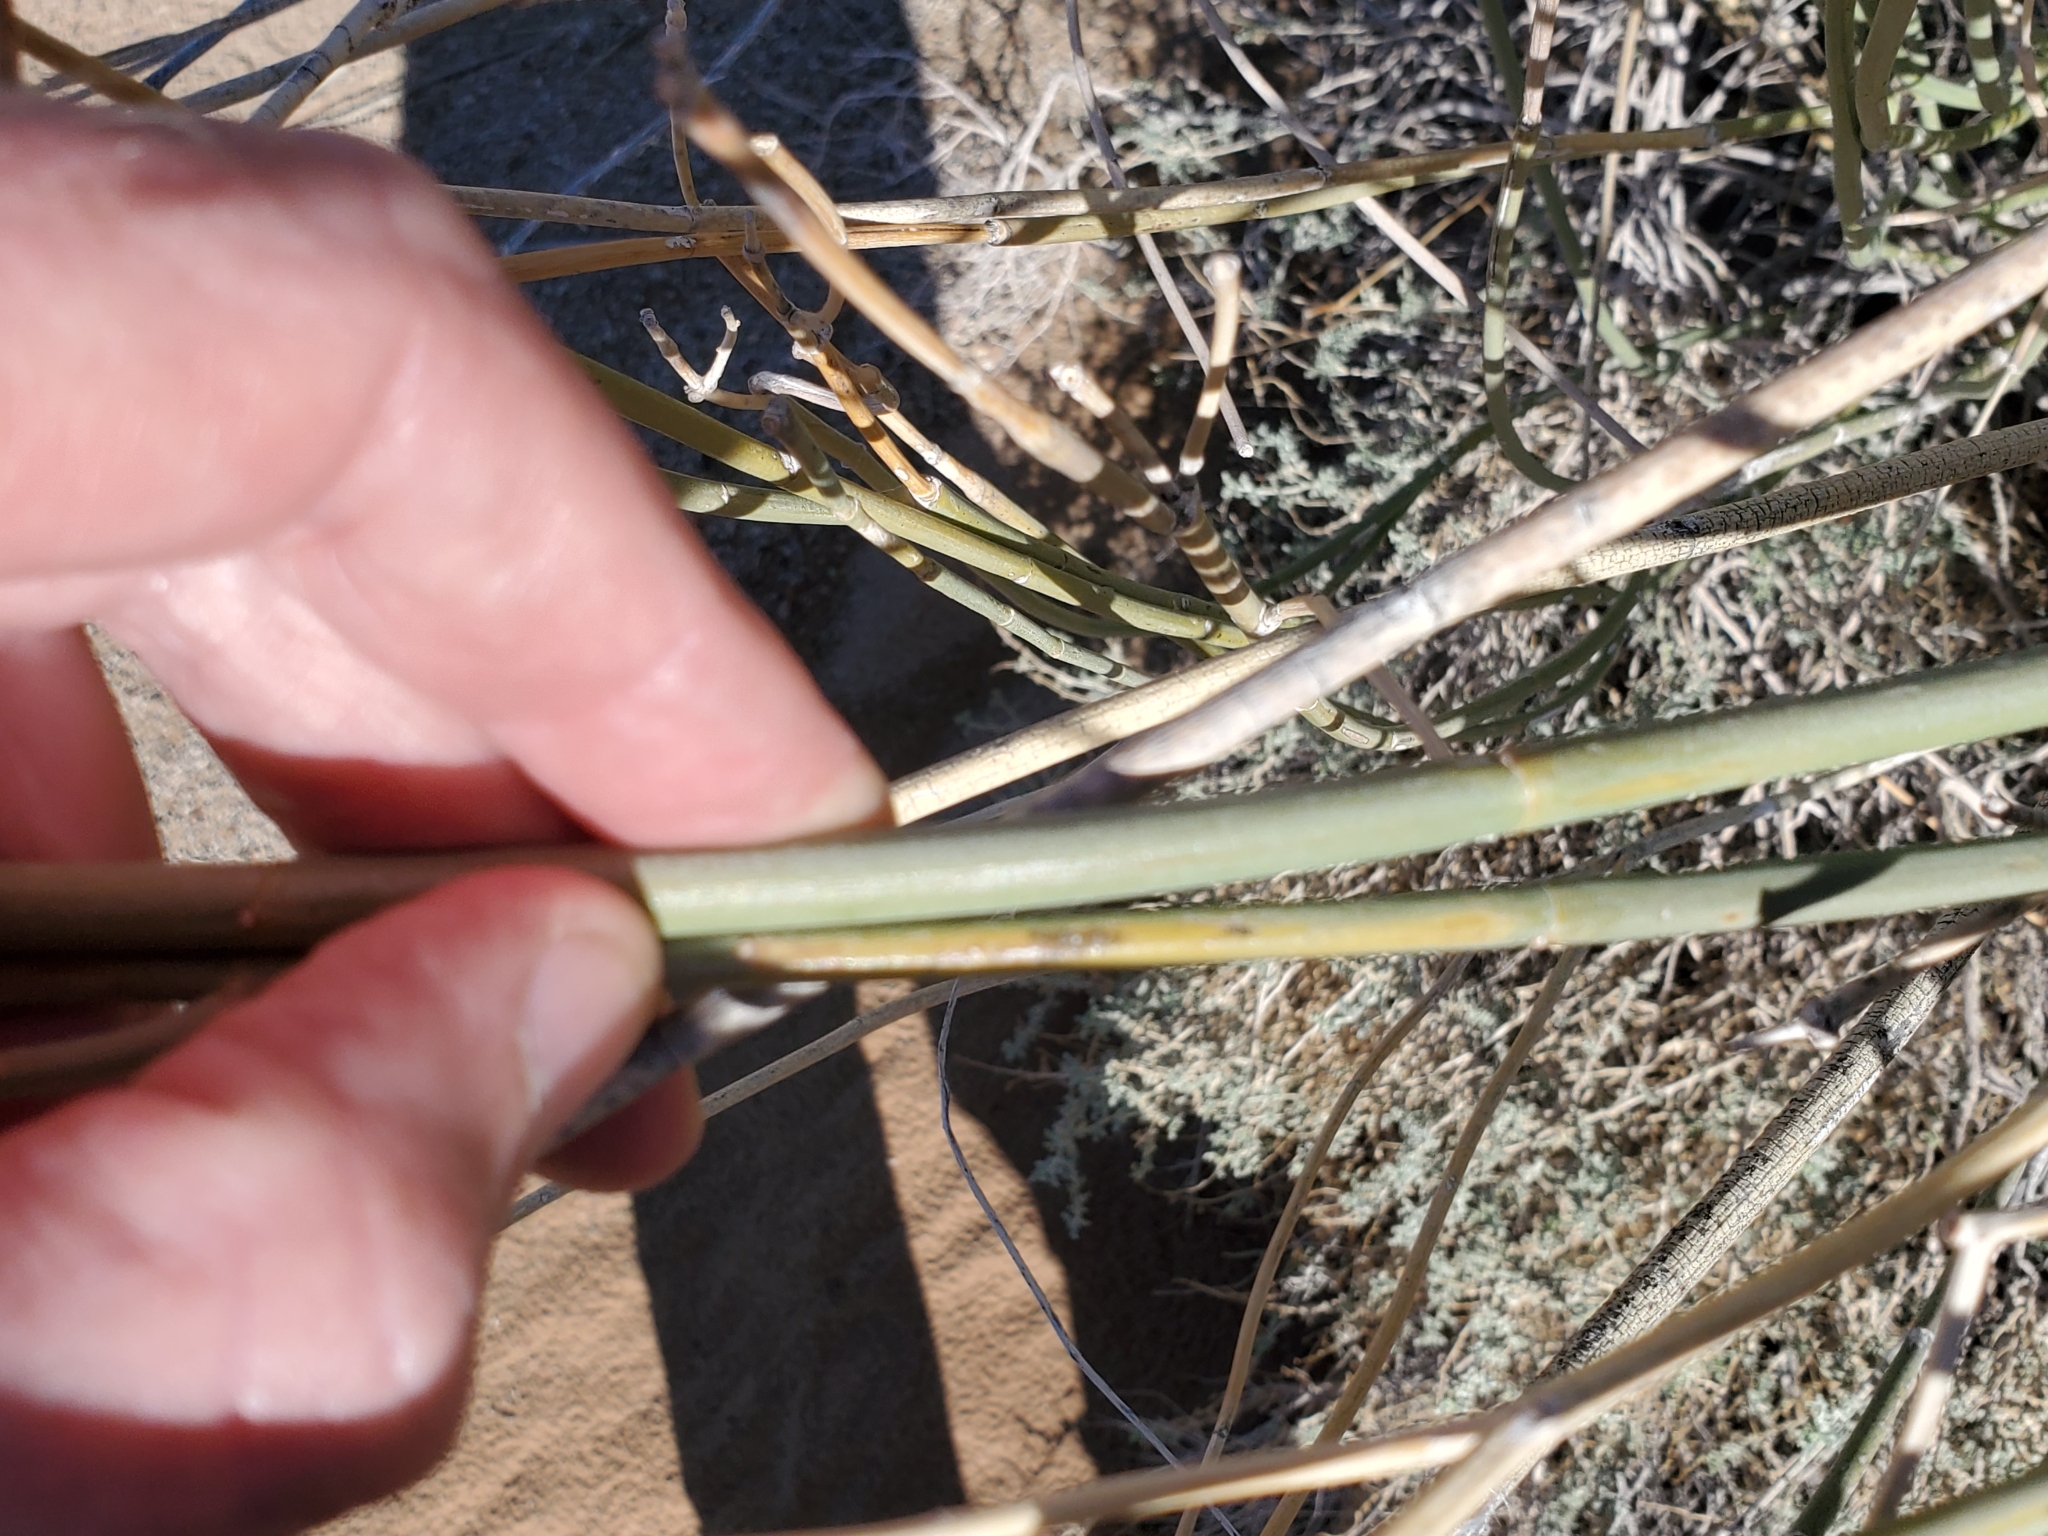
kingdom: Plantae
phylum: Tracheophyta
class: Magnoliopsida
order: Gentianales
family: Apocynaceae
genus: Asclepias
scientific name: Asclepias subulata
